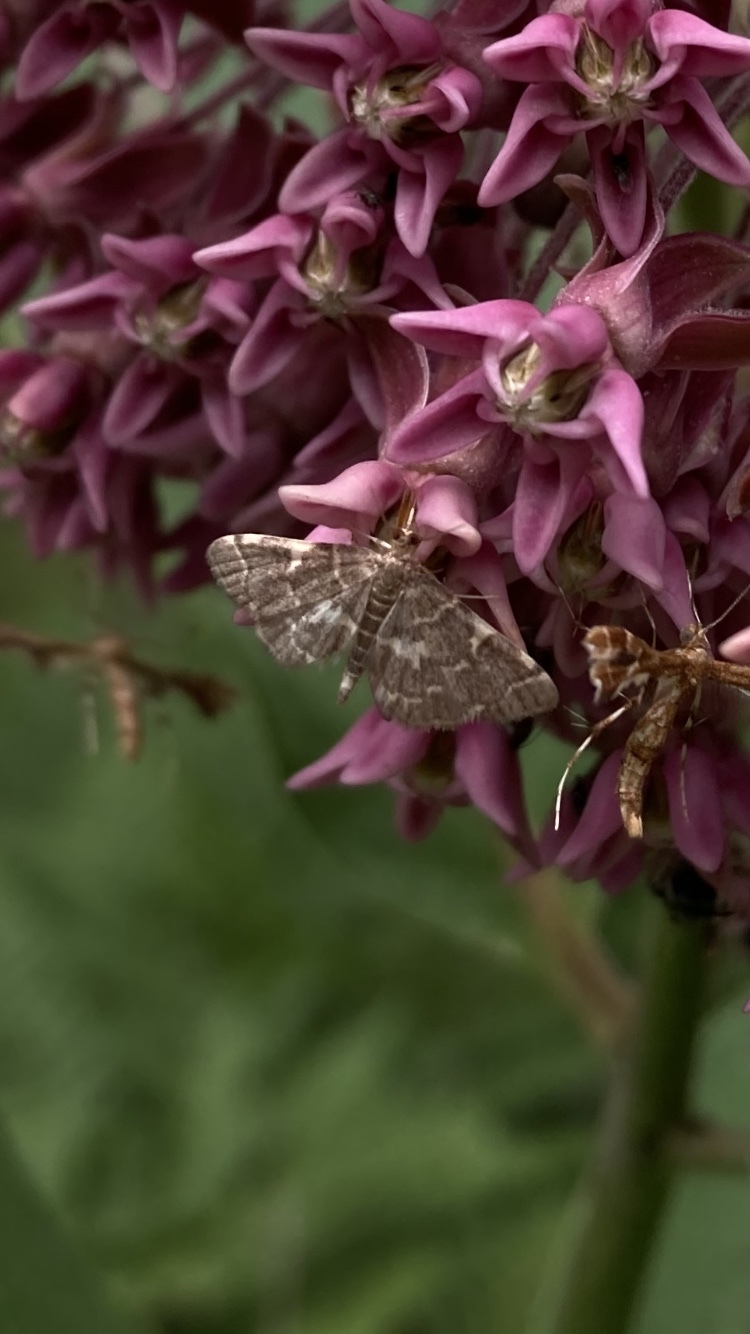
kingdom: Animalia
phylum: Arthropoda
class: Insecta
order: Lepidoptera
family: Crambidae
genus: Anageshna
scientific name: Anageshna primordialis
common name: Yellow-spotted webworm moth
